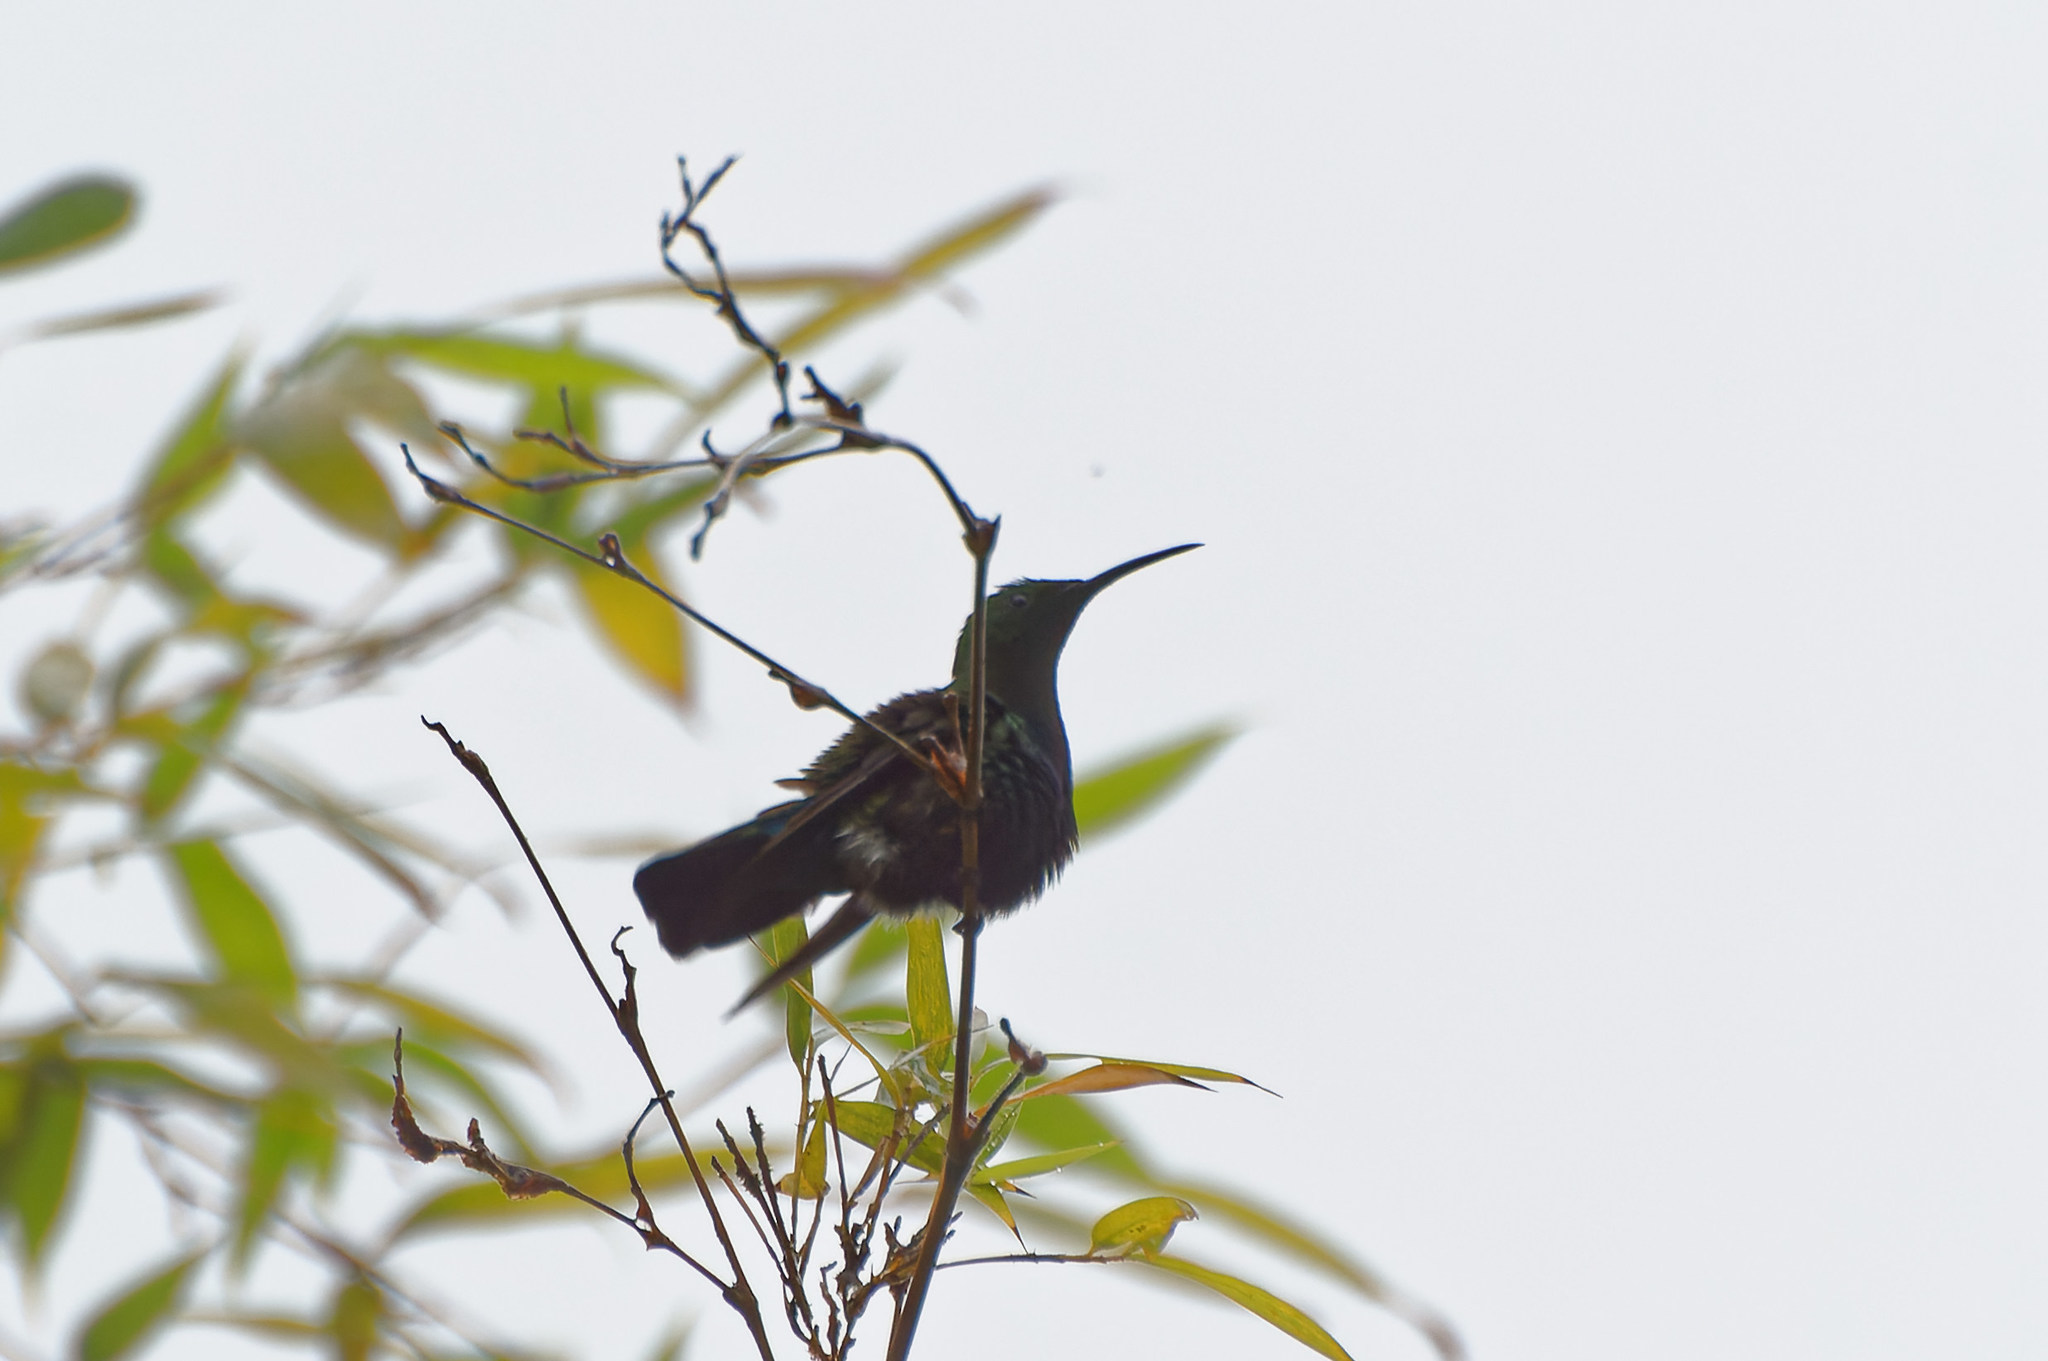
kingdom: Animalia
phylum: Chordata
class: Aves
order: Apodiformes
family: Trochilidae
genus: Eulampis
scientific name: Eulampis holosericeus
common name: Green-throated carib
